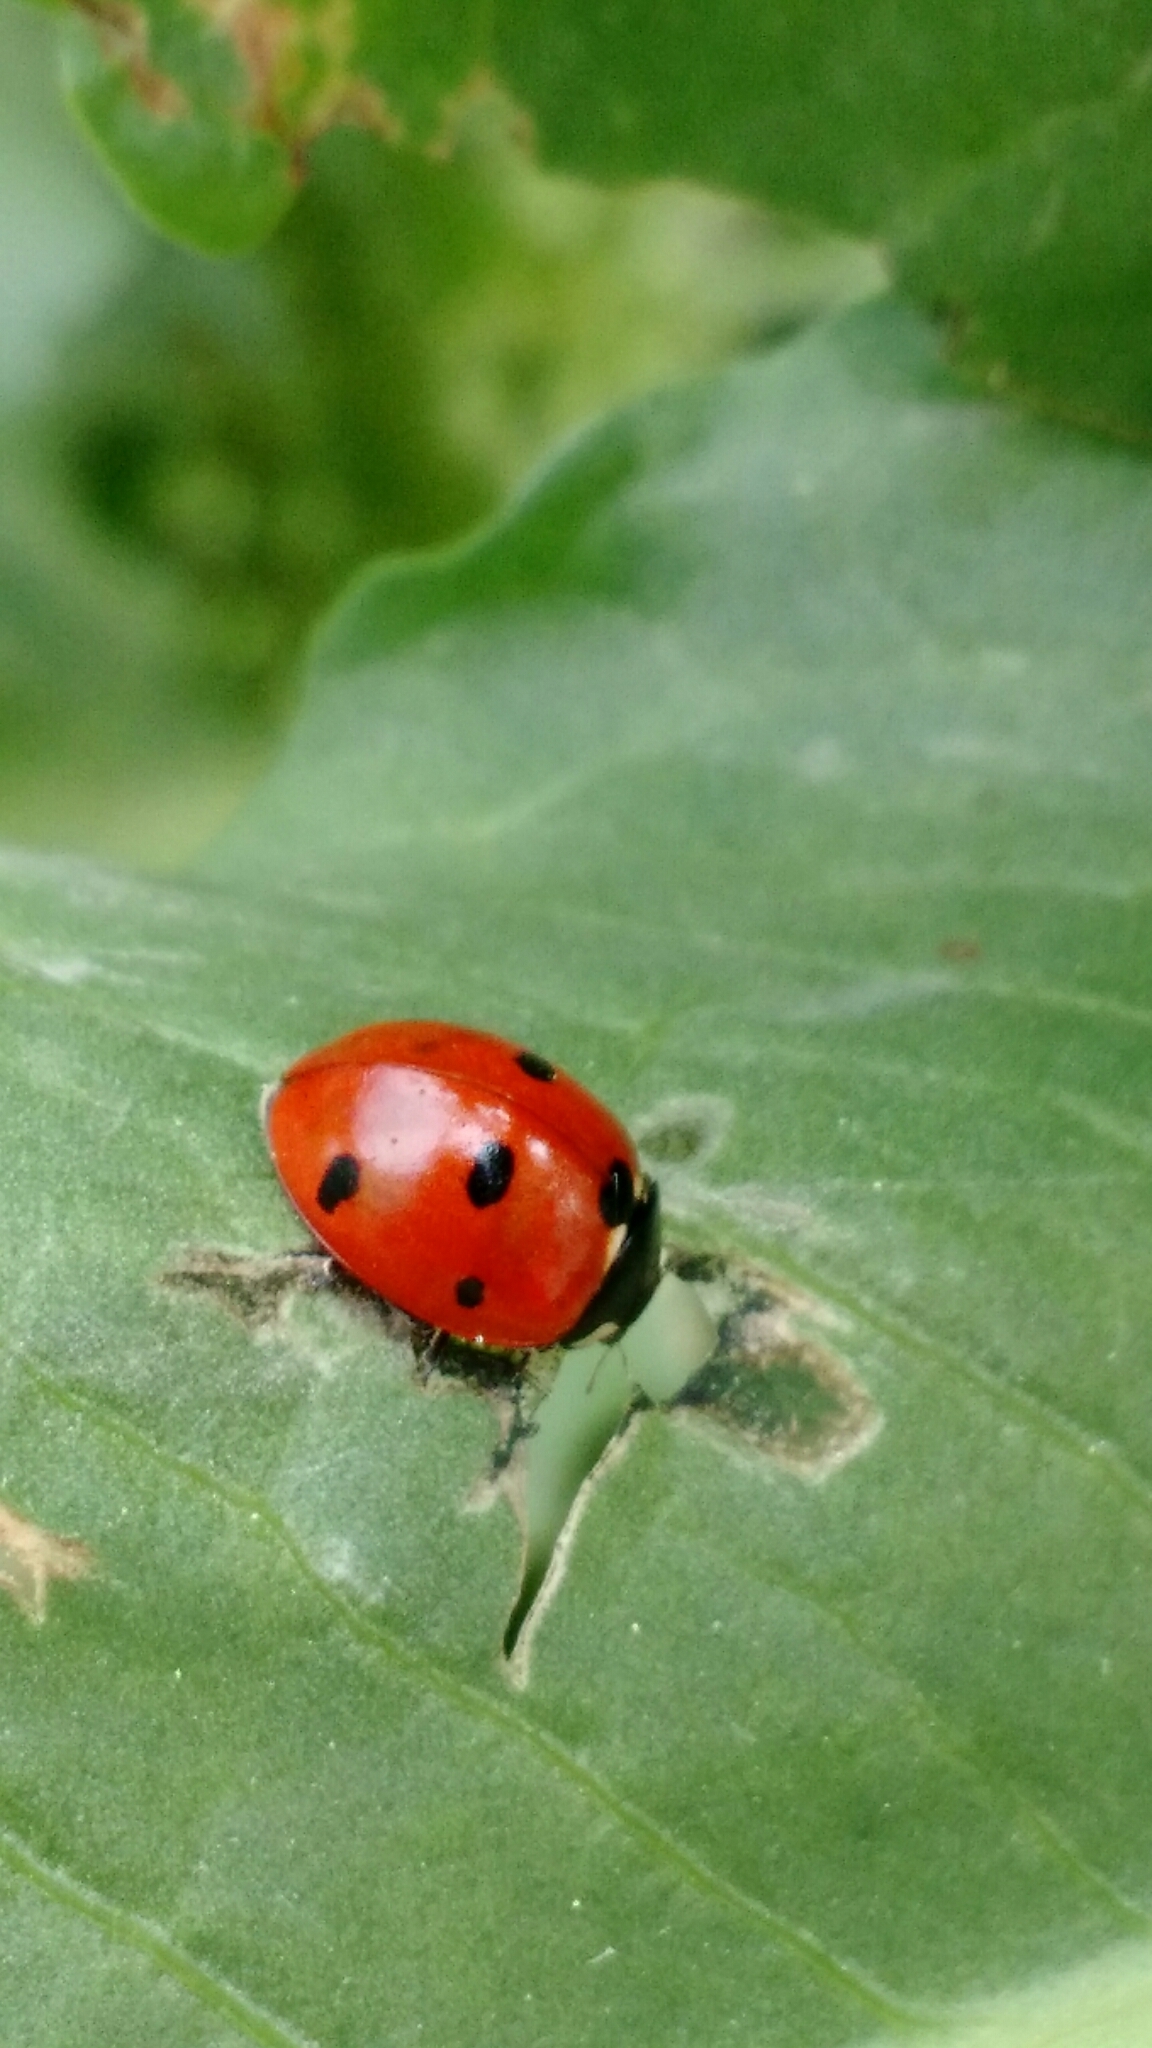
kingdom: Animalia
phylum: Arthropoda
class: Insecta
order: Coleoptera
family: Coccinellidae
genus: Coccinella
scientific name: Coccinella septempunctata
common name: Sevenspotted lady beetle
